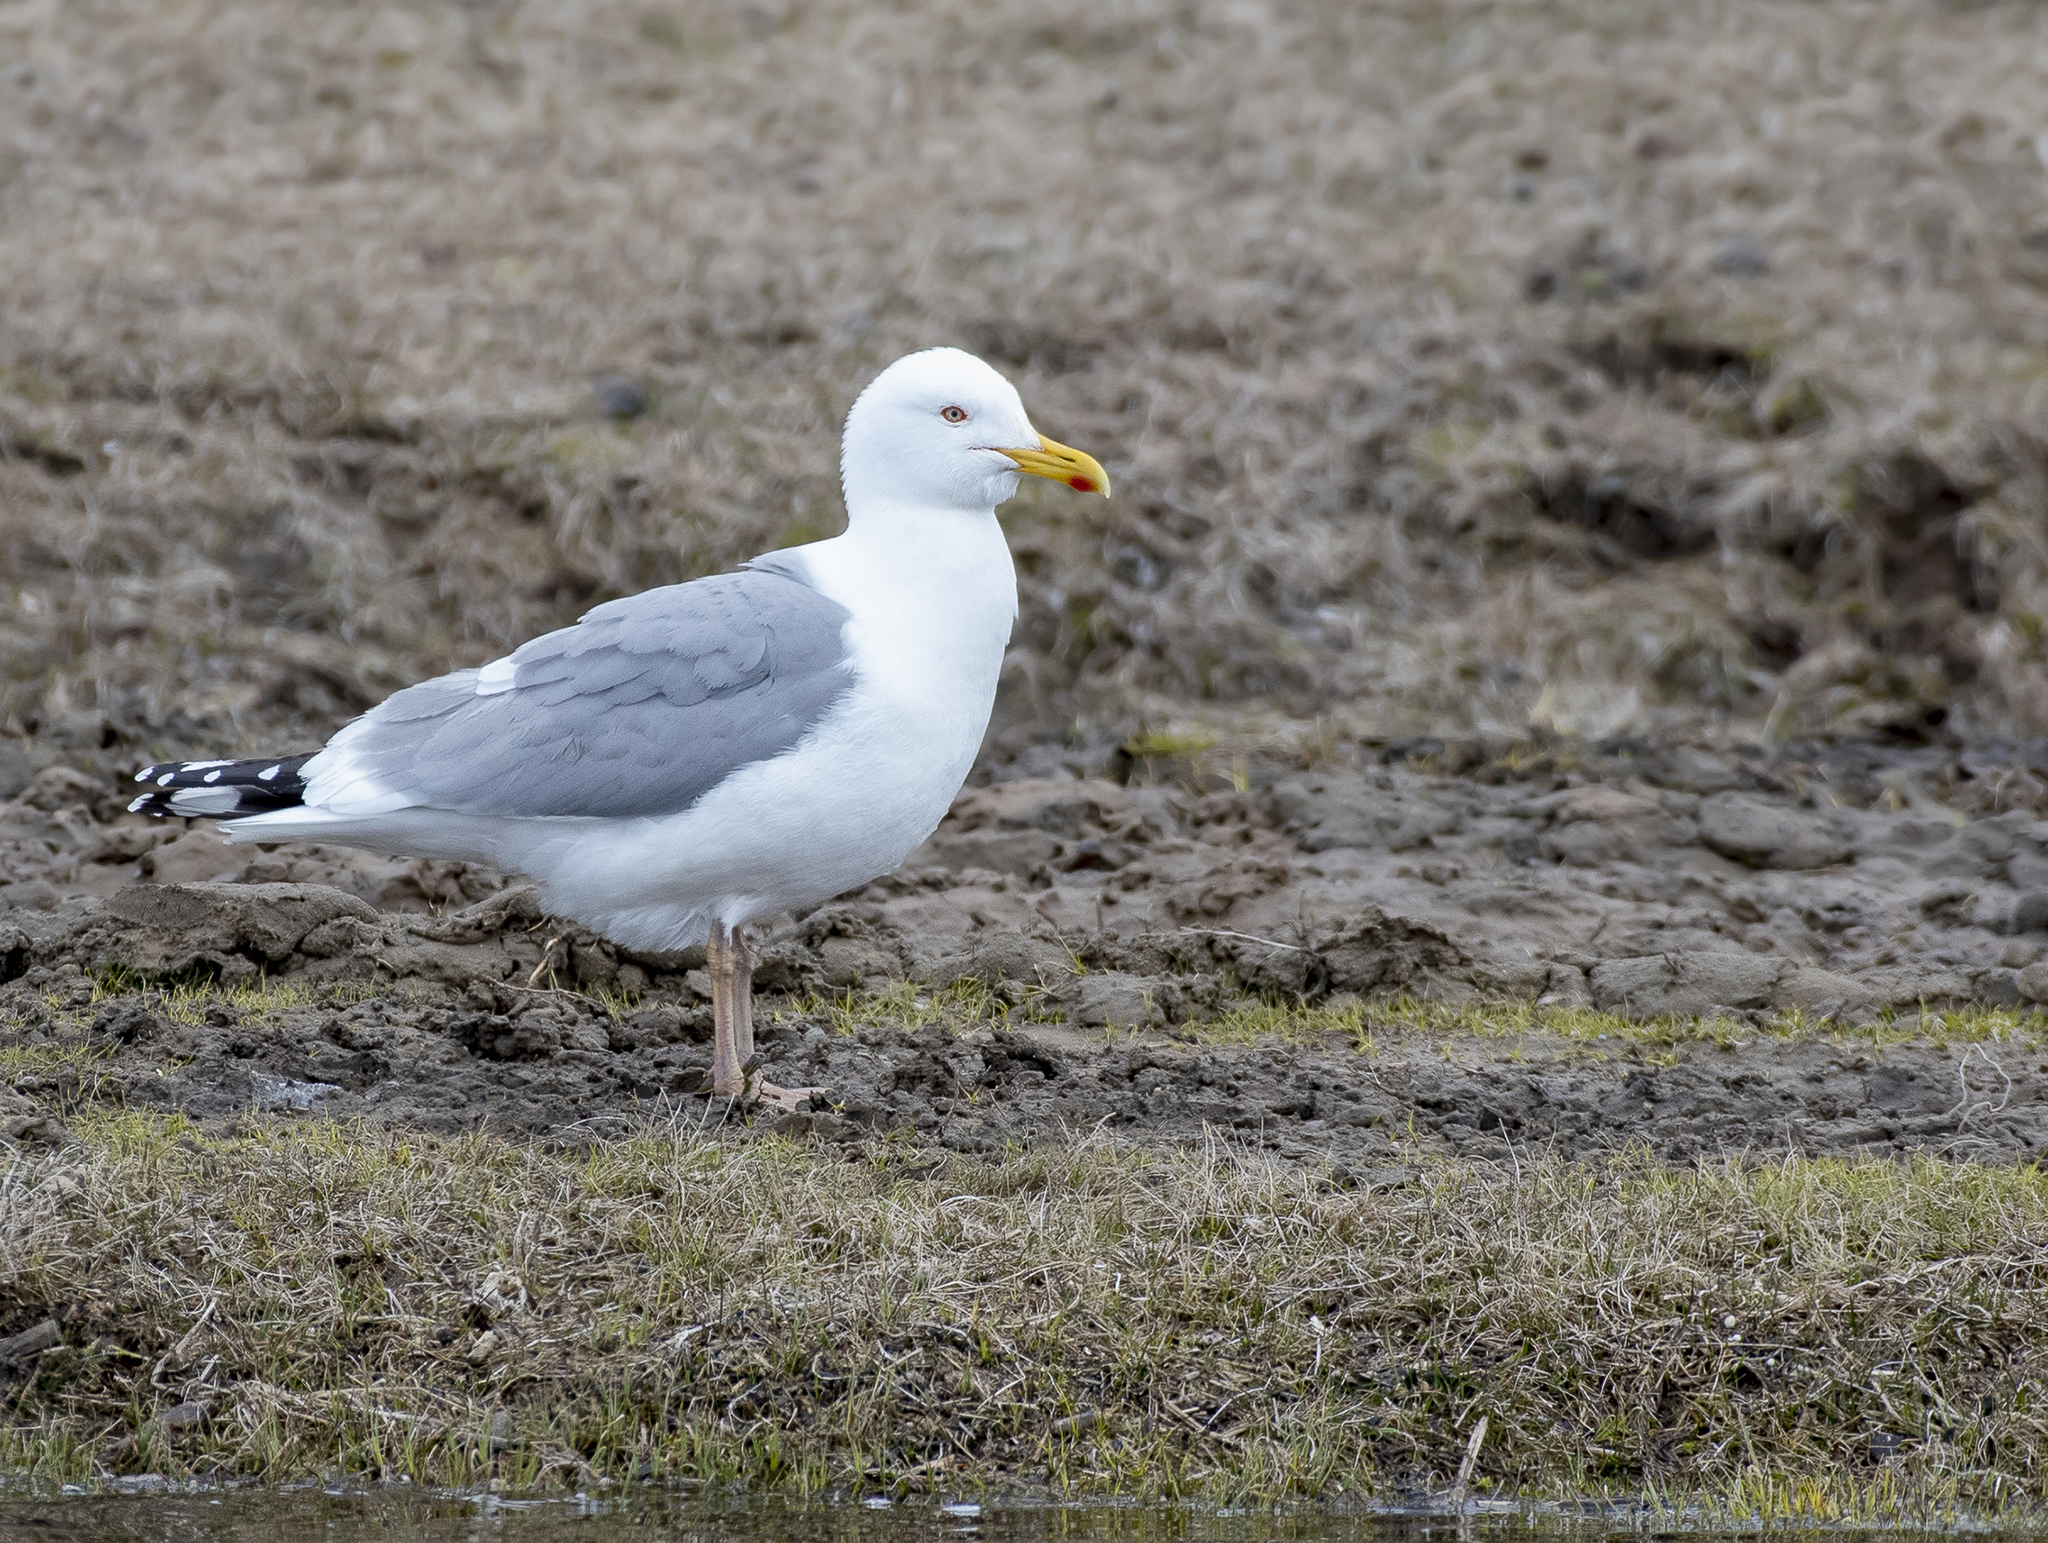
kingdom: Animalia
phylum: Chordata
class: Aves
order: Charadriiformes
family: Laridae
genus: Larus
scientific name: Larus vegae
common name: Vega gull
